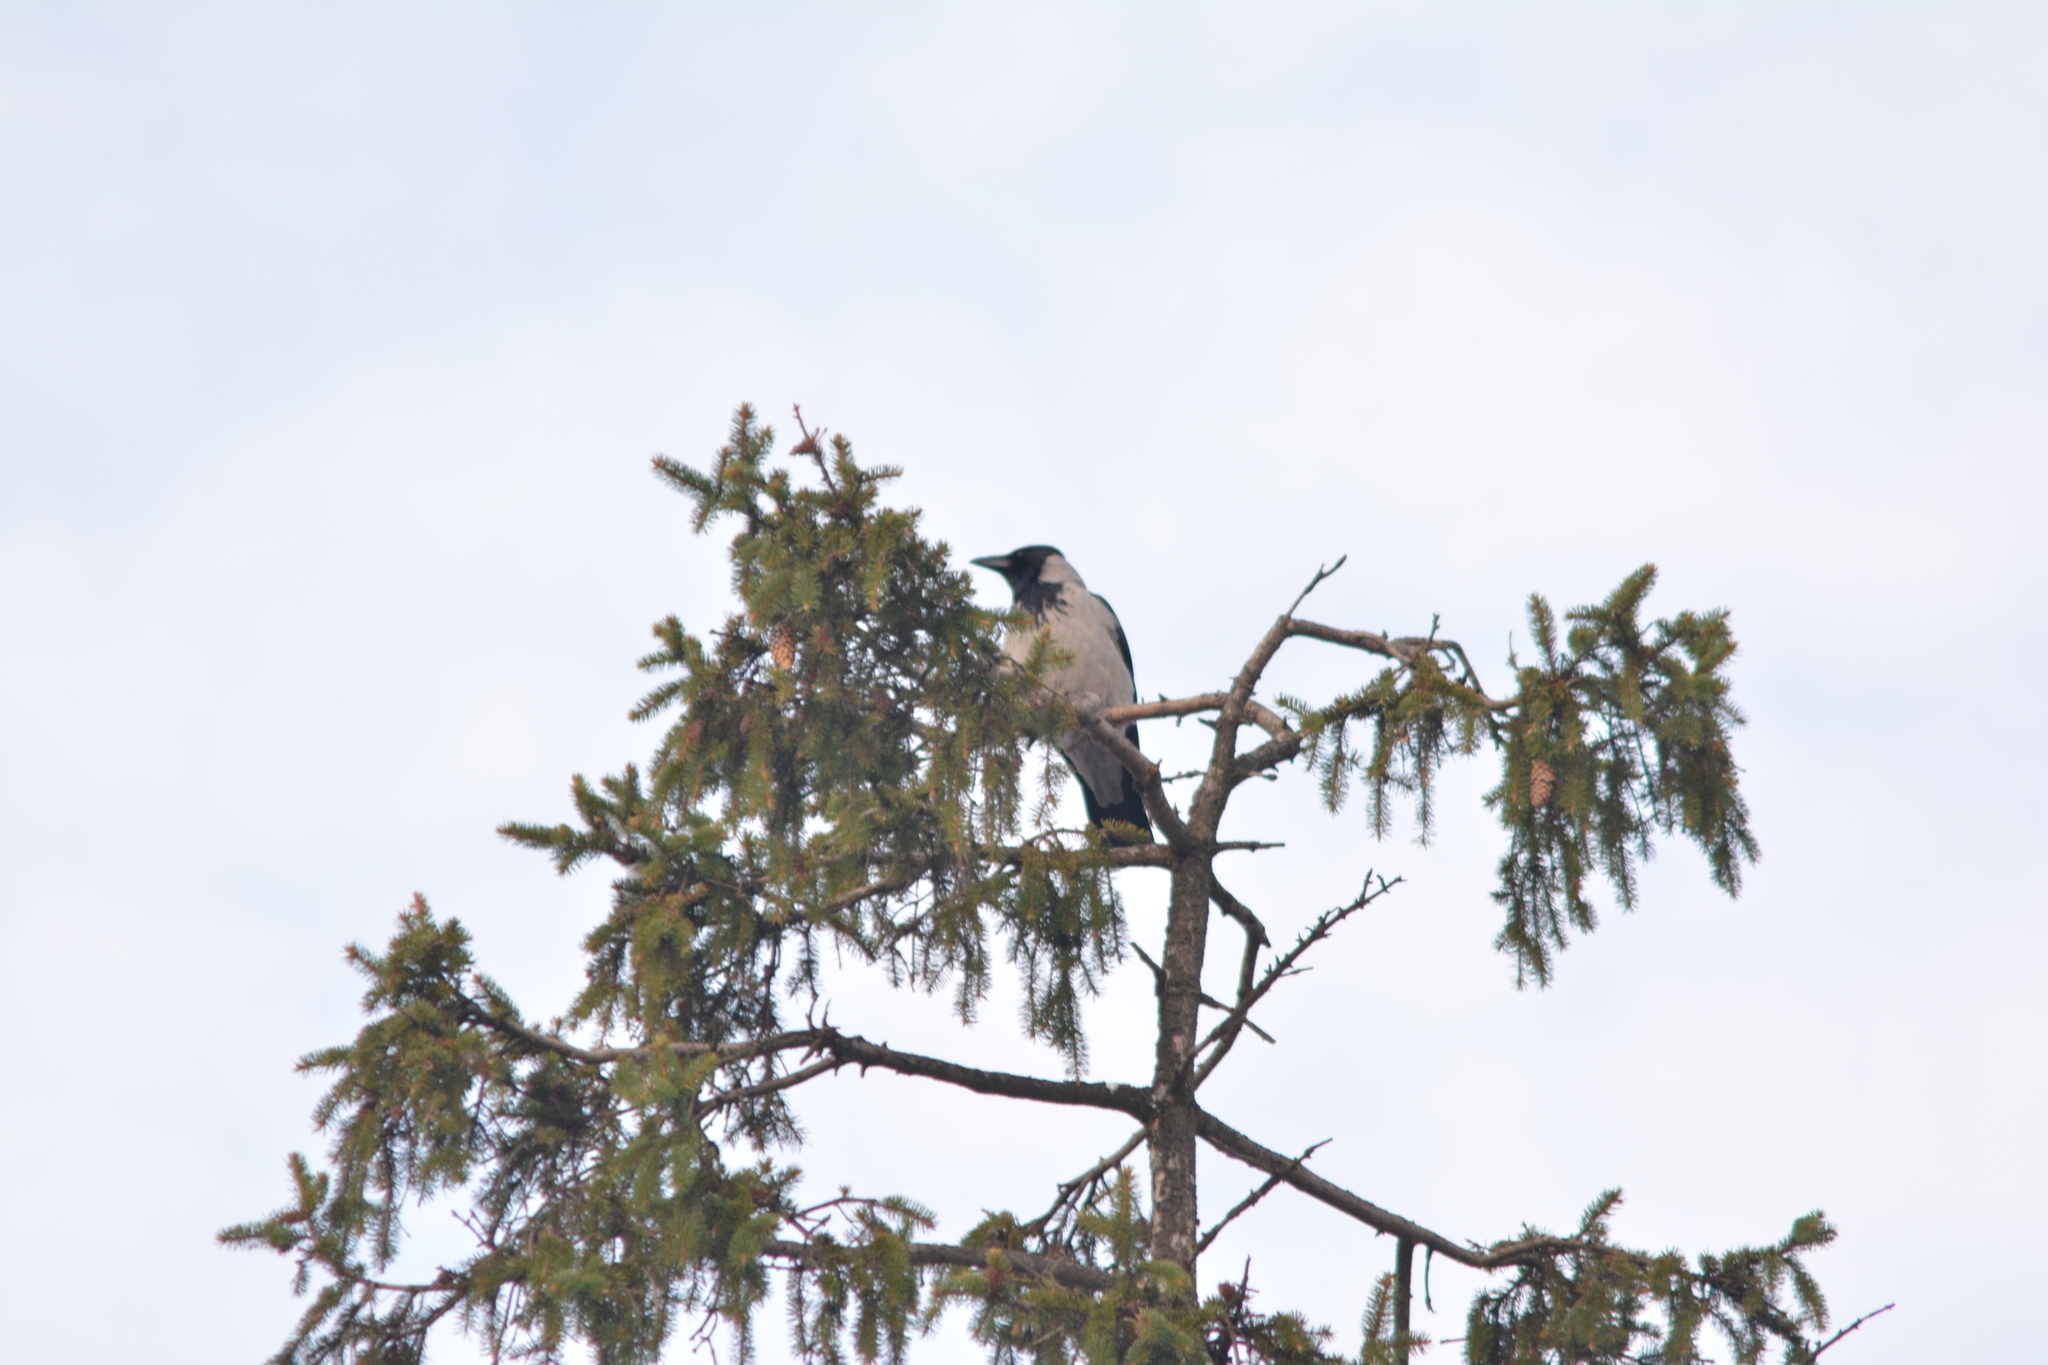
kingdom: Animalia
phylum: Chordata
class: Aves
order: Passeriformes
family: Corvidae
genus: Corvus
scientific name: Corvus cornix
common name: Hooded crow
